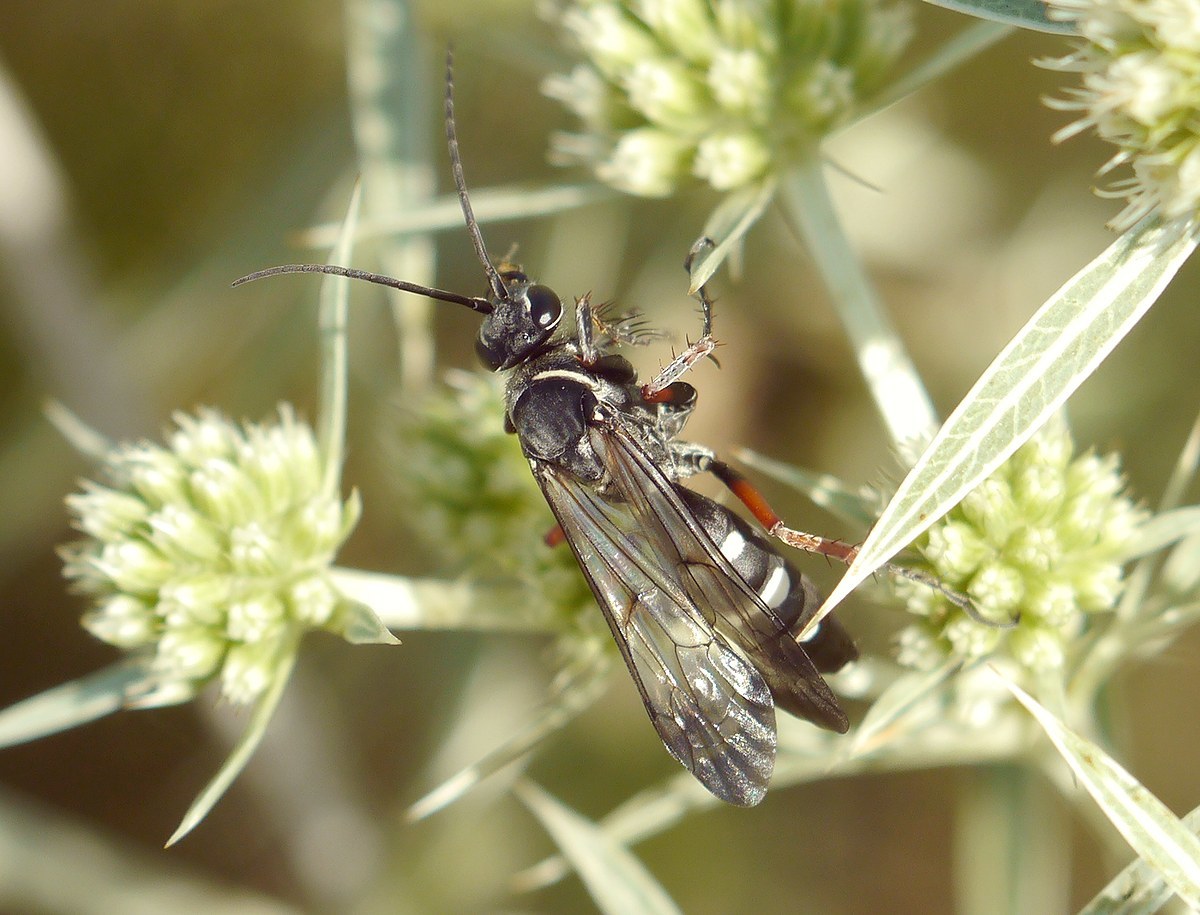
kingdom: Animalia
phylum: Arthropoda
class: Insecta
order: Hymenoptera
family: Pompilidae
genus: Episyron
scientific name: Episyron rufipes
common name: Red legged spider wasp
